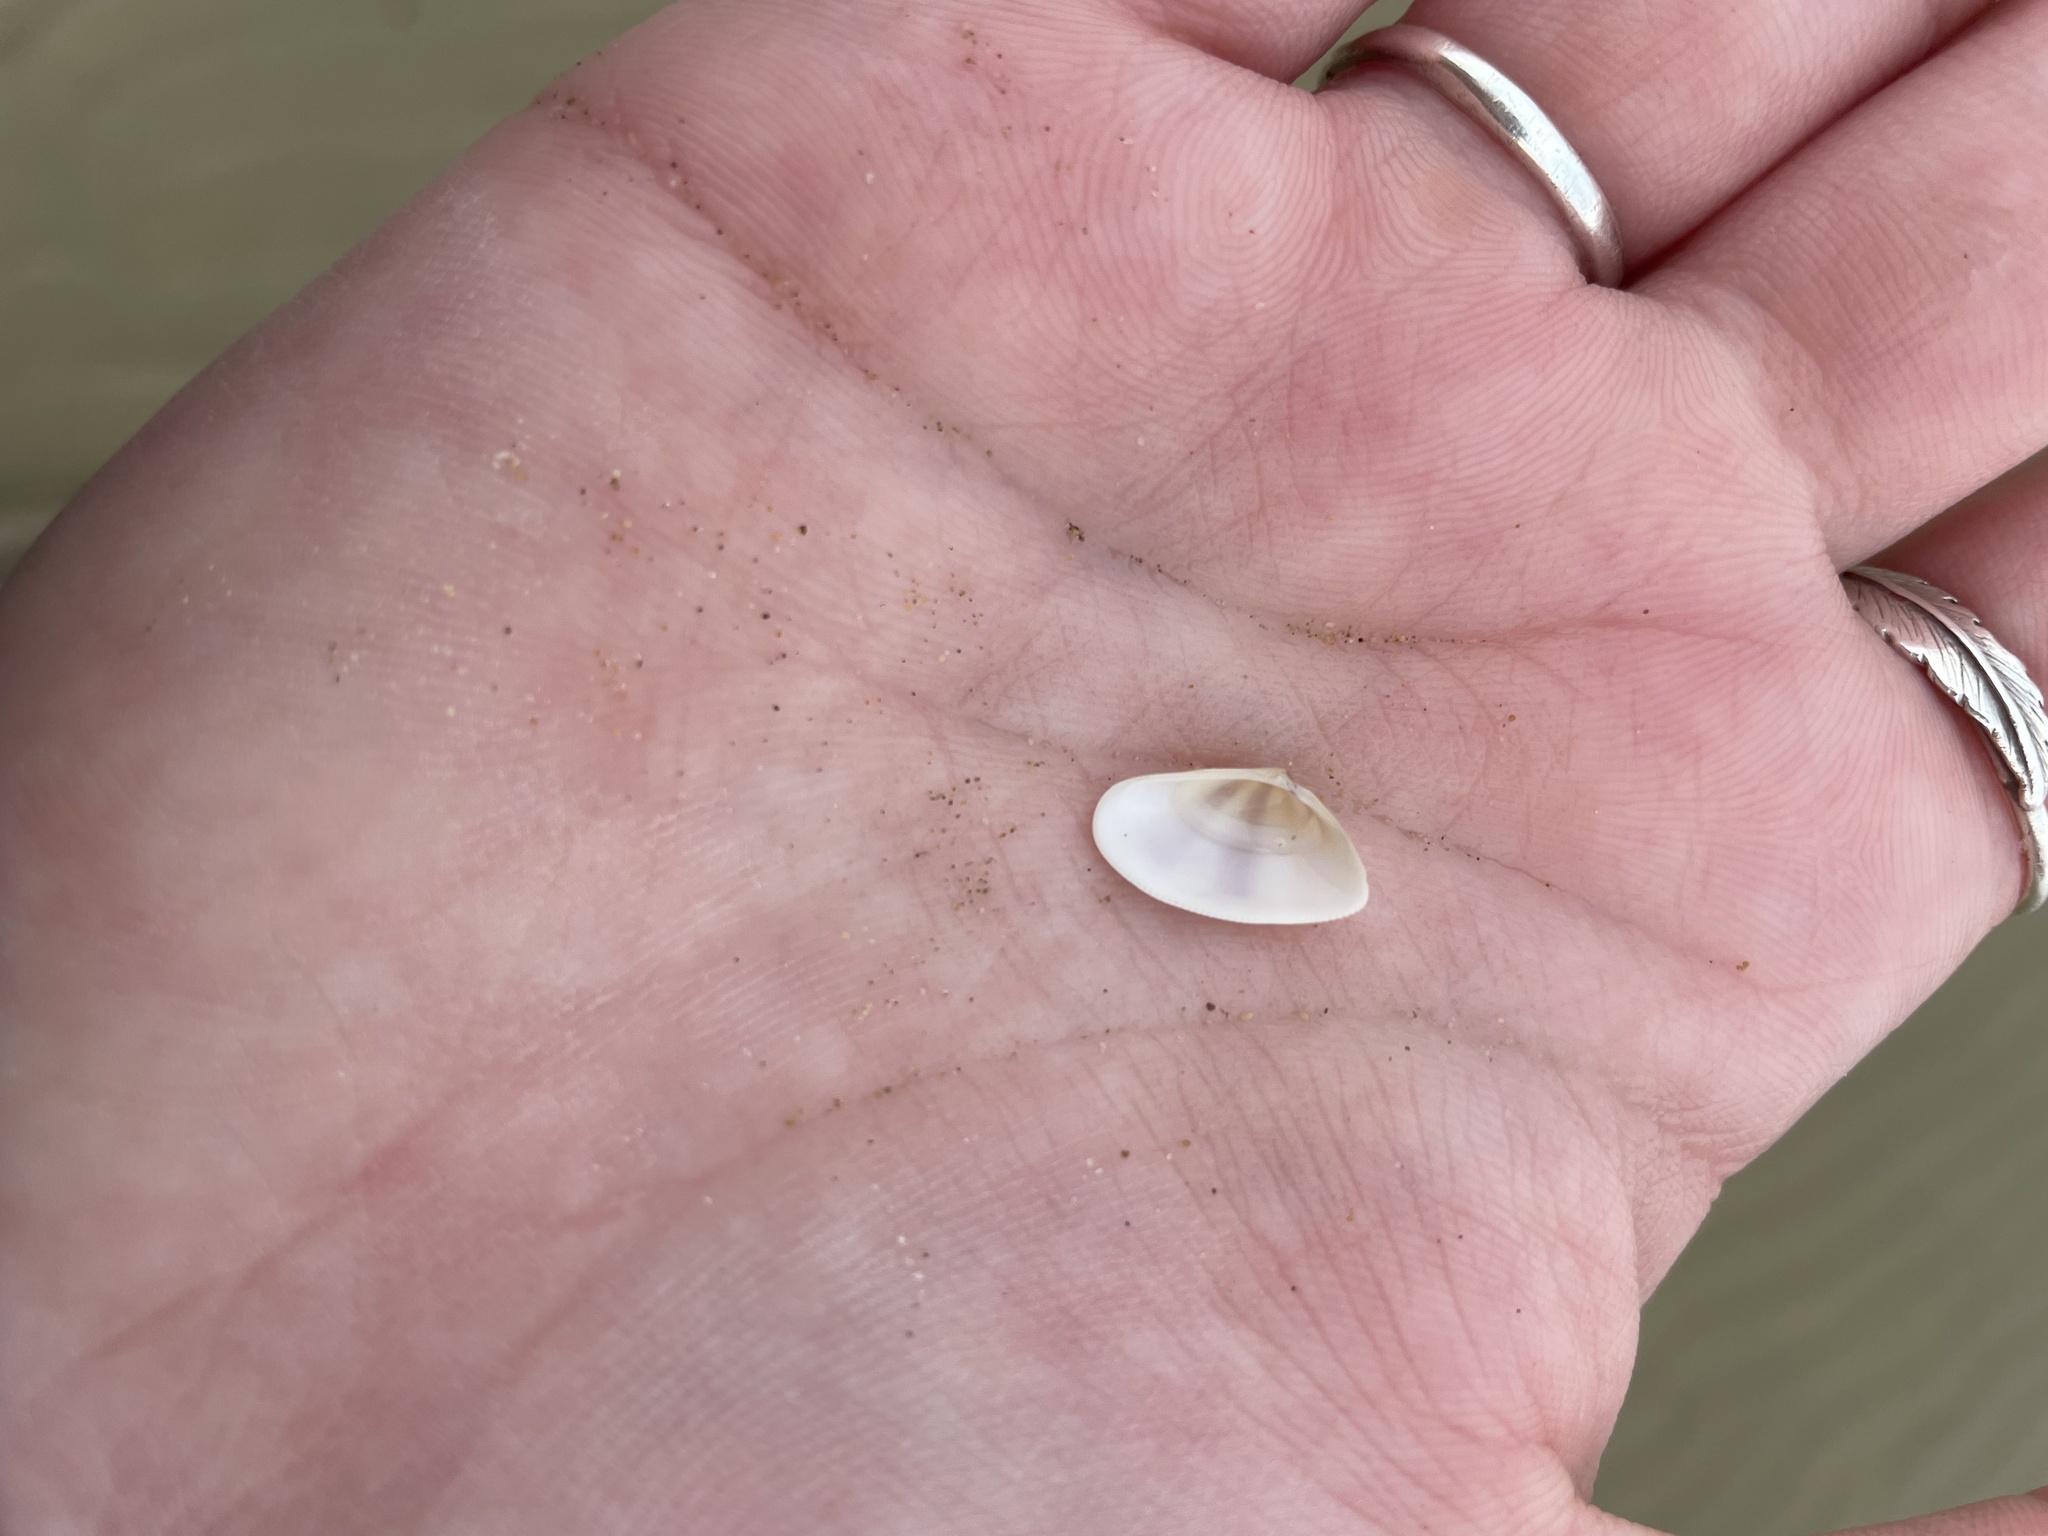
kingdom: Animalia
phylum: Mollusca
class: Bivalvia
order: Cardiida
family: Donacidae
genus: Donax
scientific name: Donax semistriatus
